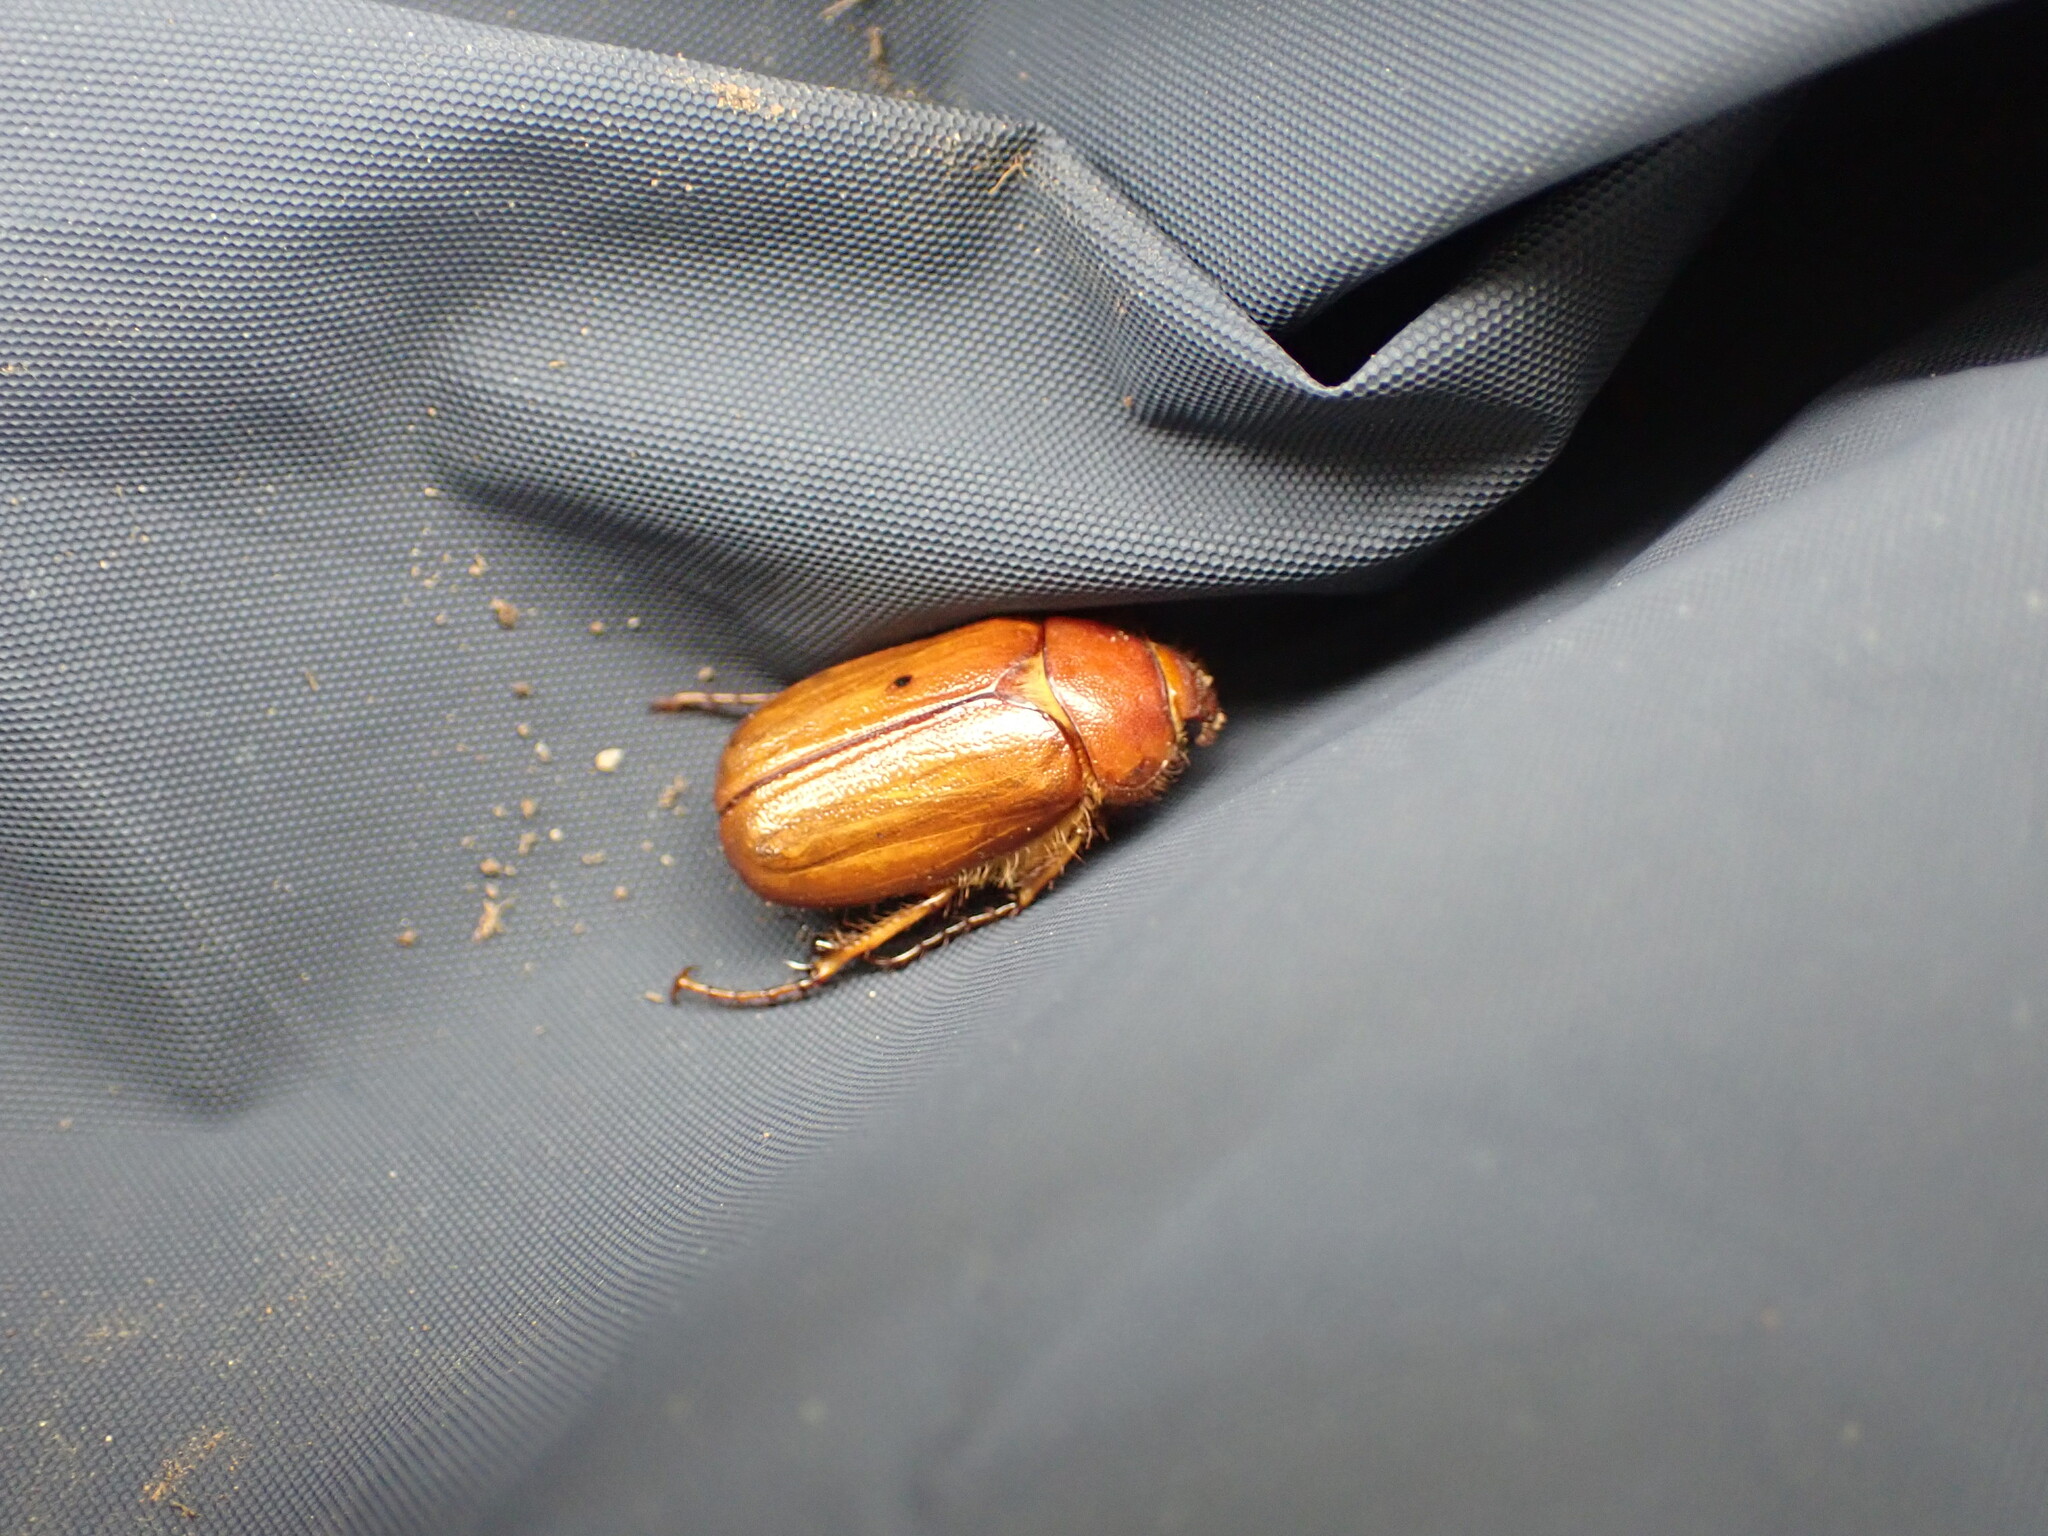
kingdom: Animalia
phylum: Arthropoda
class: Insecta
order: Coleoptera
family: Scarabaeidae
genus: Amphimallon
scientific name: Amphimallon majale
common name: European chafer
